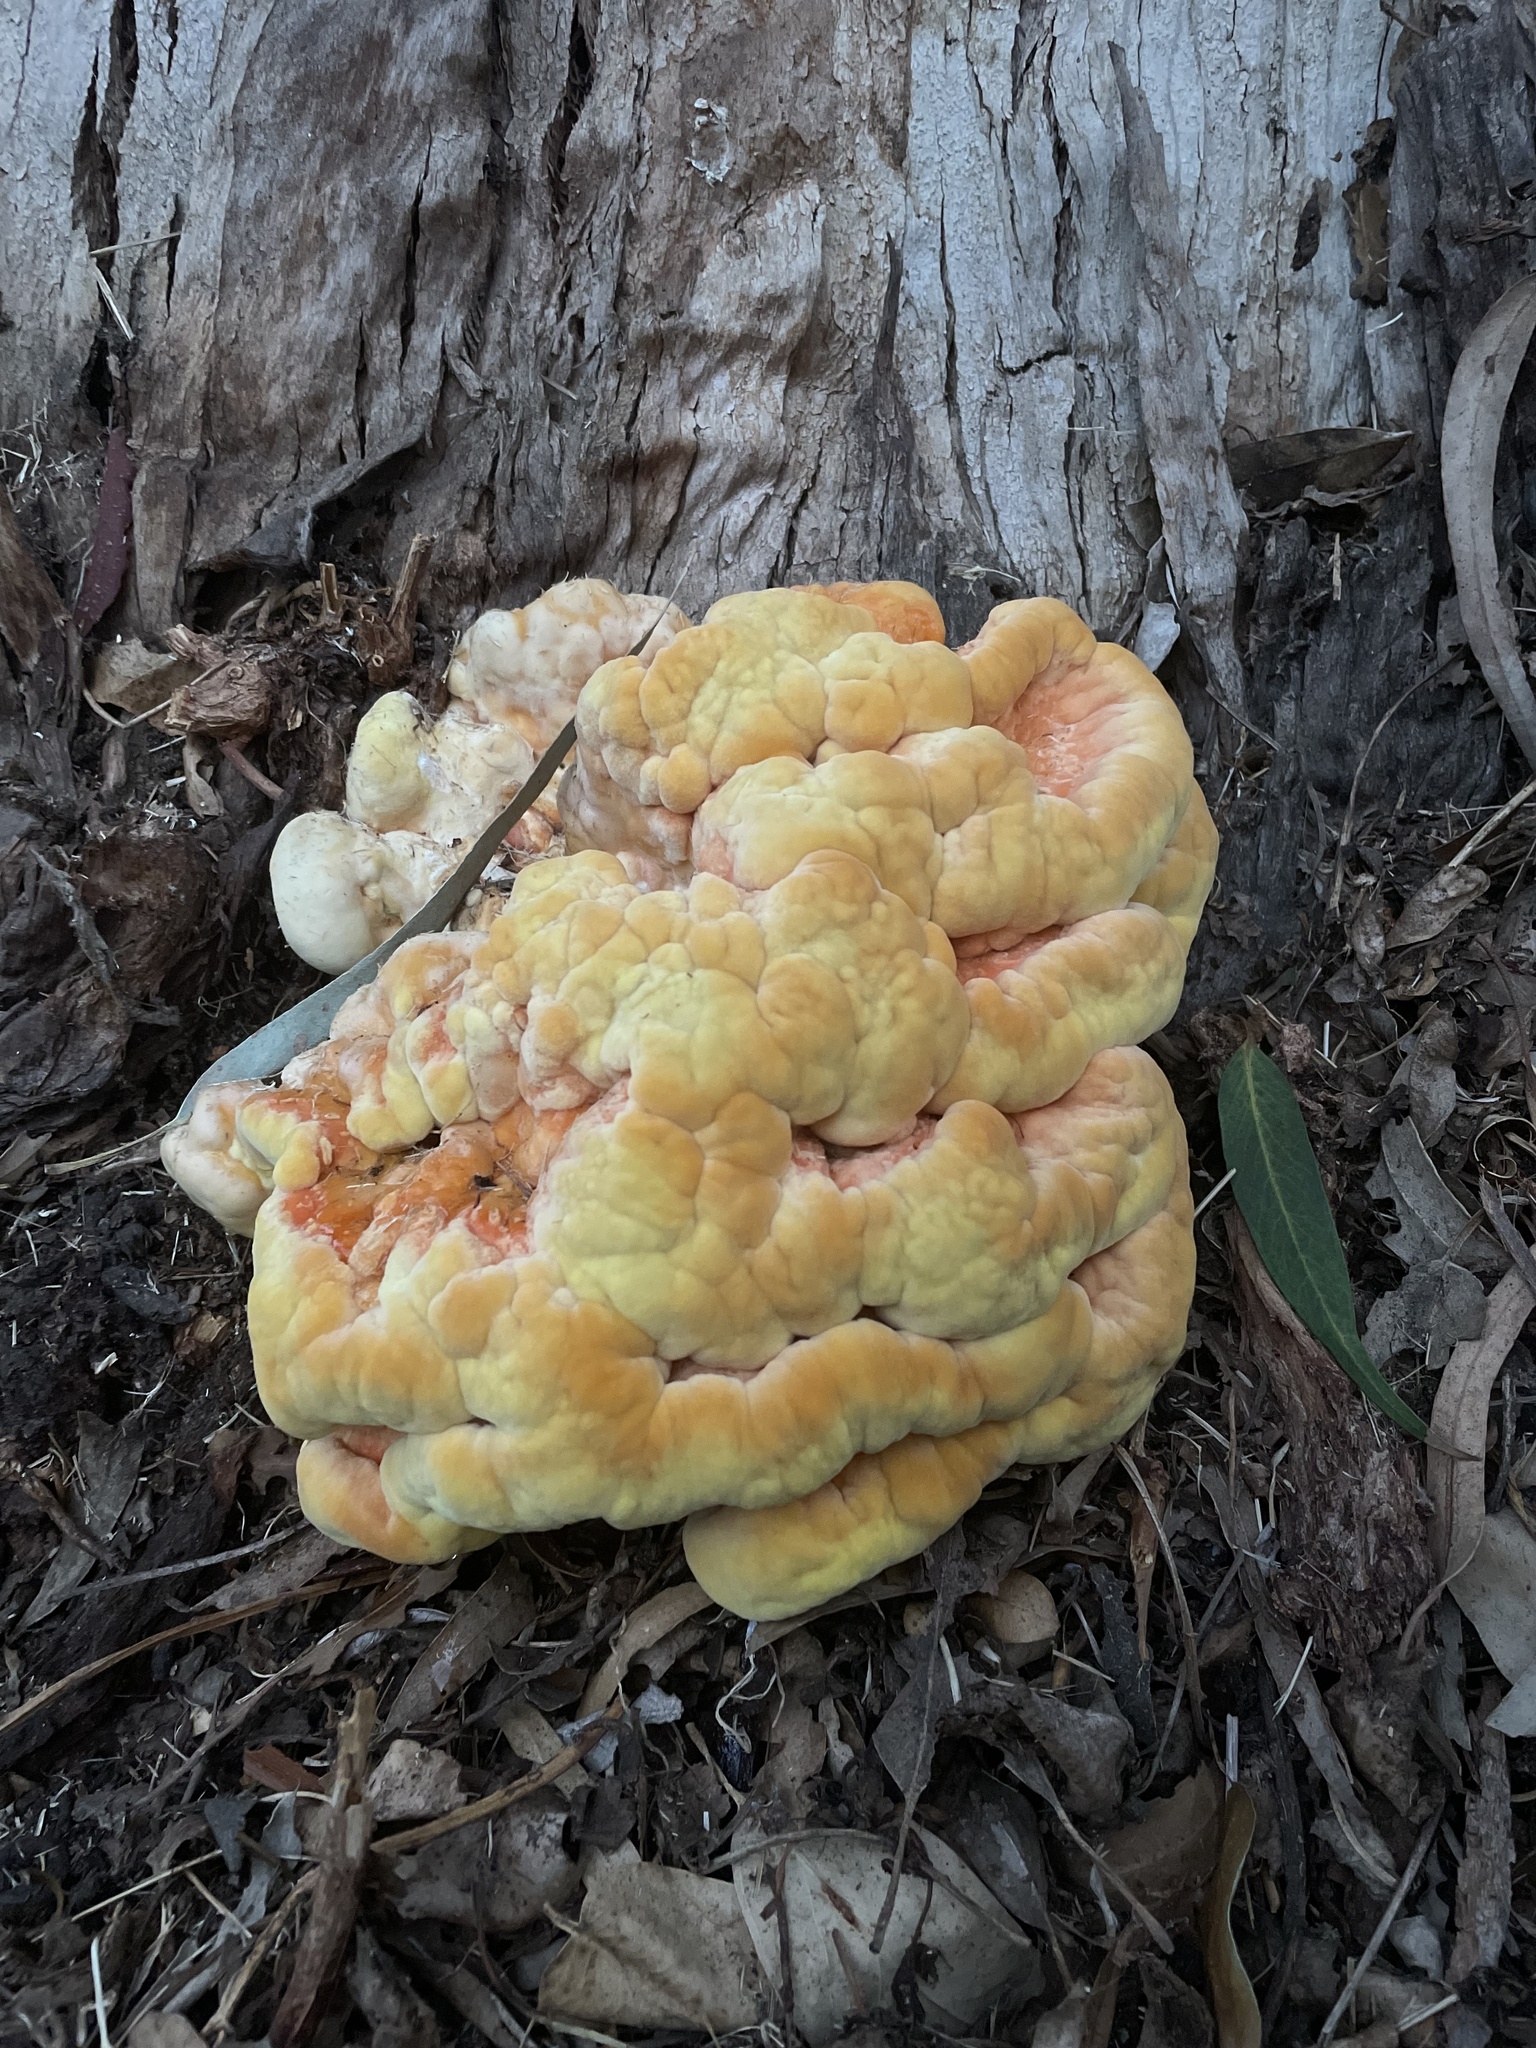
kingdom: Fungi
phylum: Basidiomycota
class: Agaricomycetes
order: Polyporales
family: Laetiporaceae
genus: Laetiporus
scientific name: Laetiporus gilbertsonii
